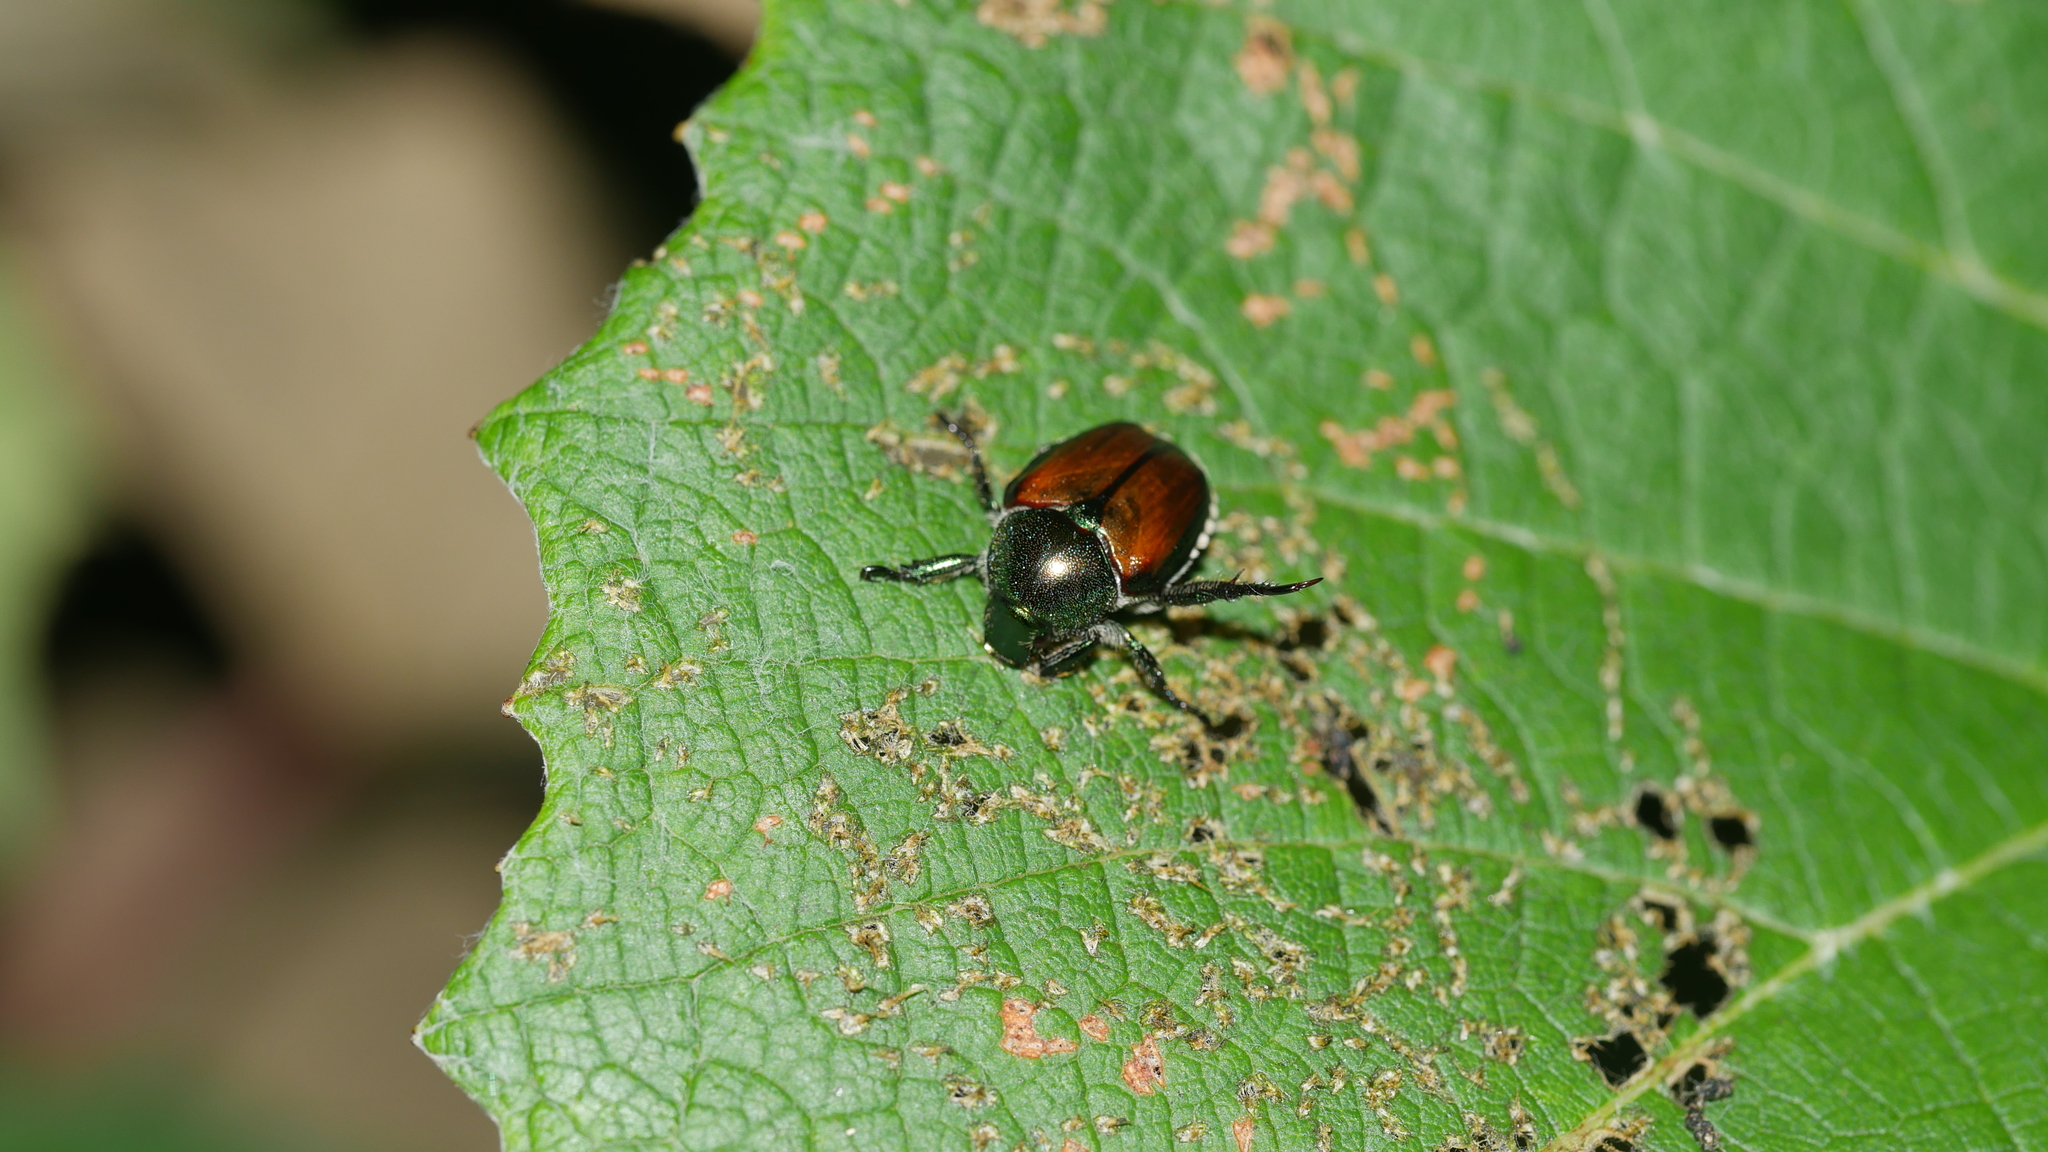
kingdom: Animalia
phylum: Arthropoda
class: Insecta
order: Coleoptera
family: Scarabaeidae
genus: Popillia
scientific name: Popillia japonica
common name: Japanese beetle
